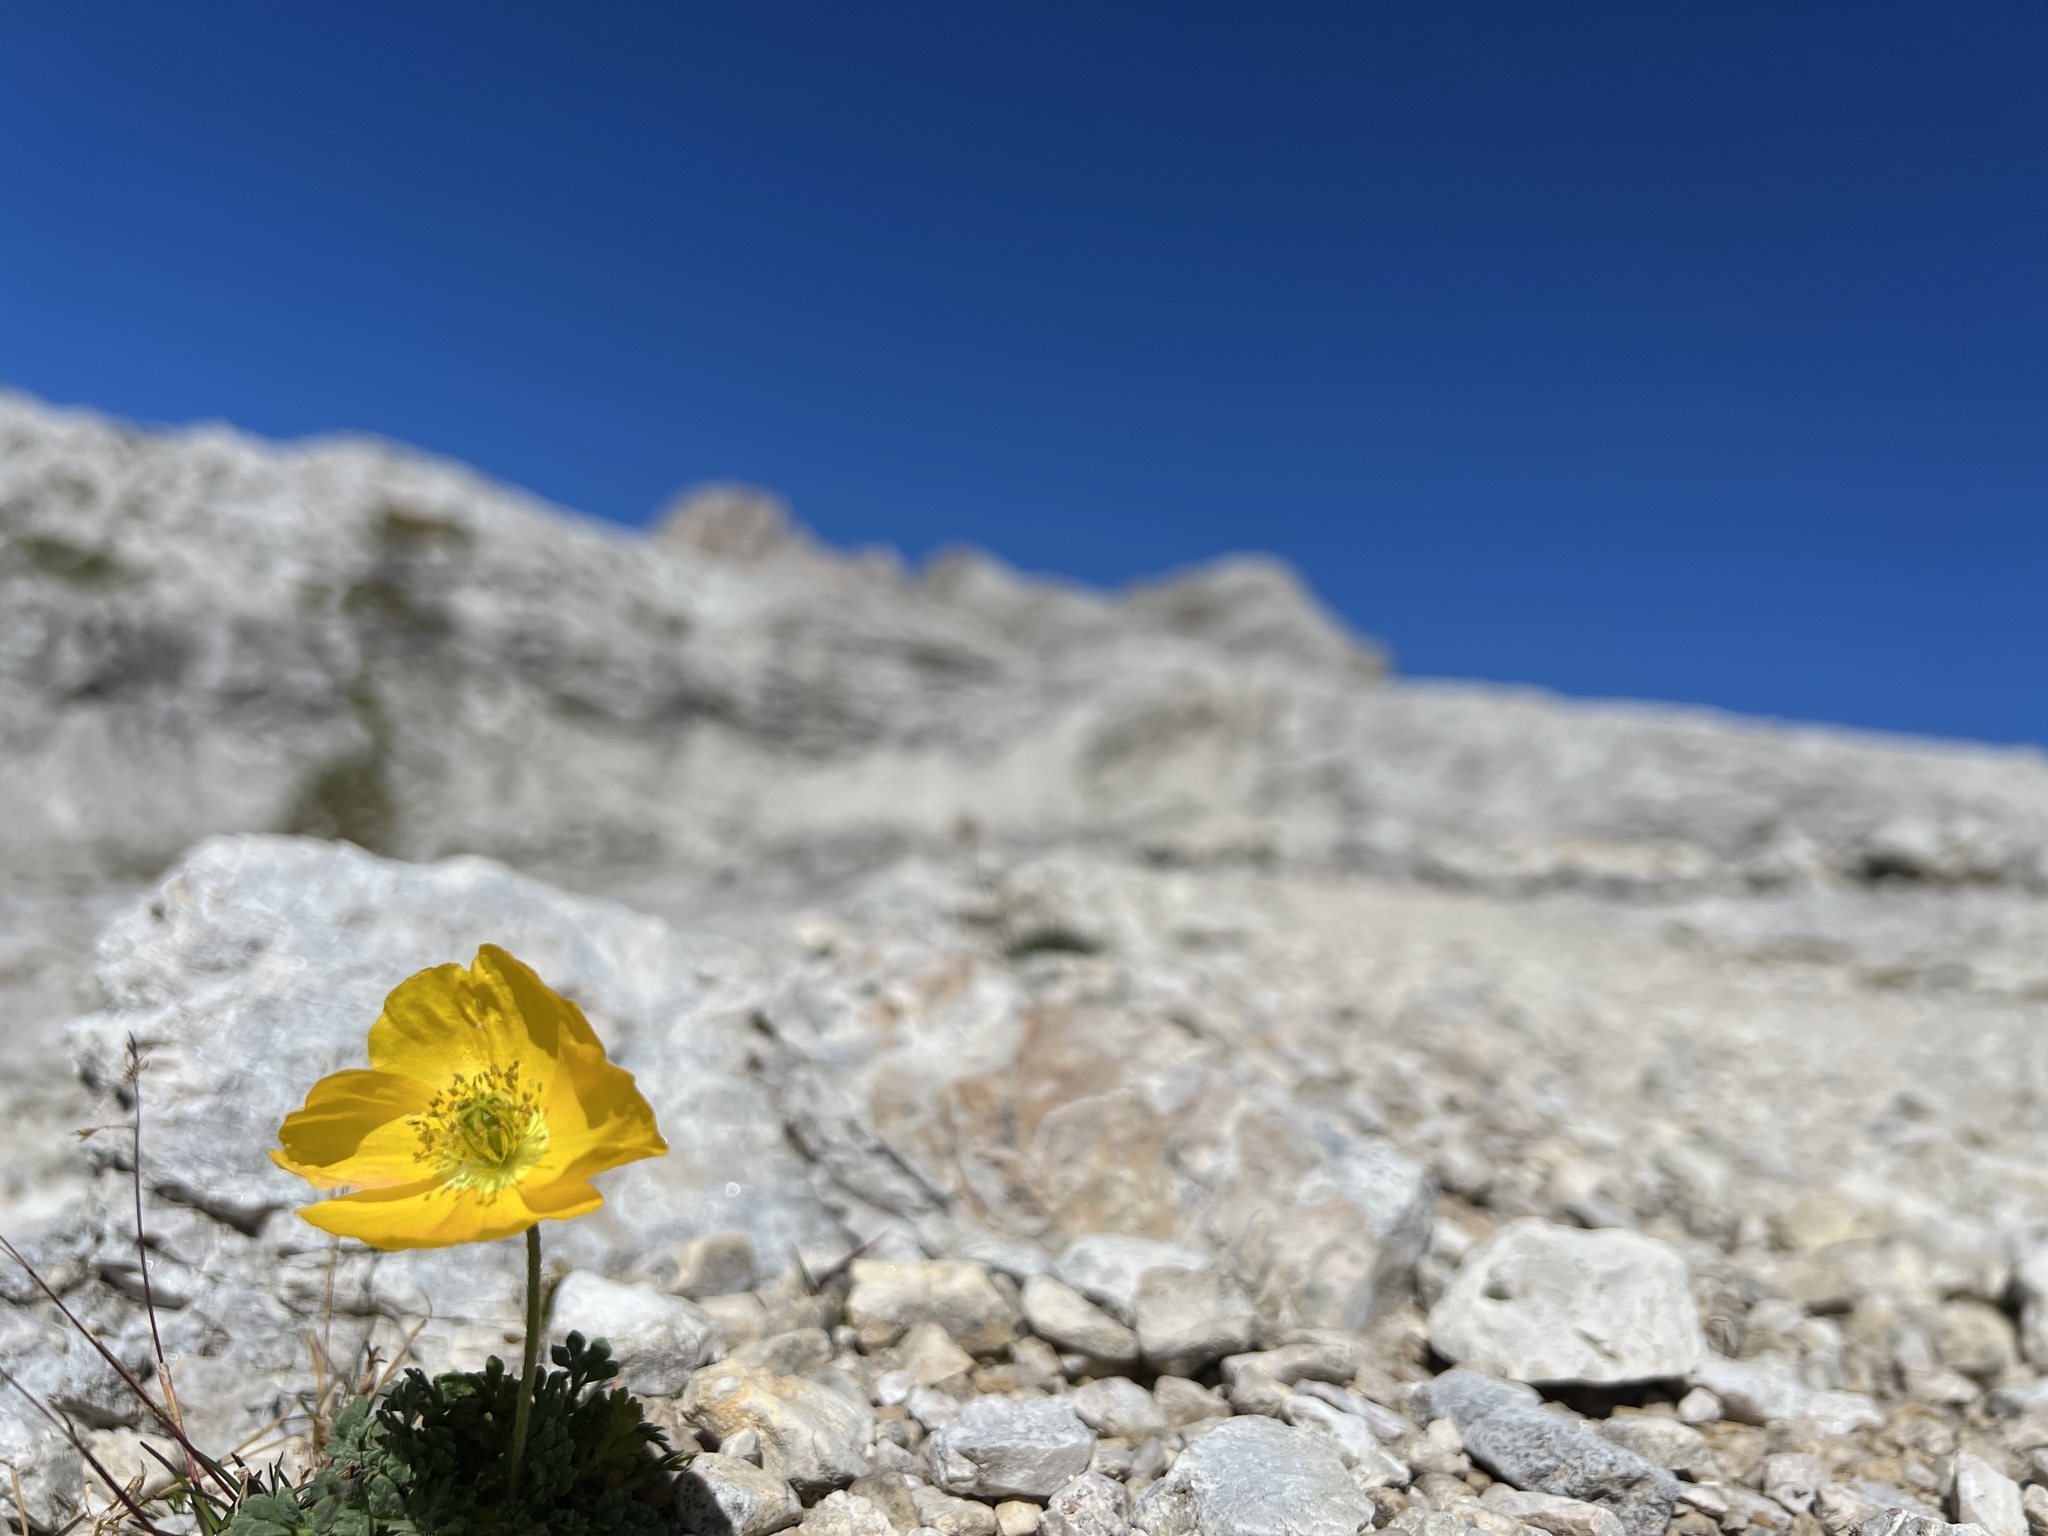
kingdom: Plantae
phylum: Tracheophyta
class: Magnoliopsida
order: Ranunculales
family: Papaveraceae
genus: Papaver
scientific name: Papaver alpinum
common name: Austrian poppy
